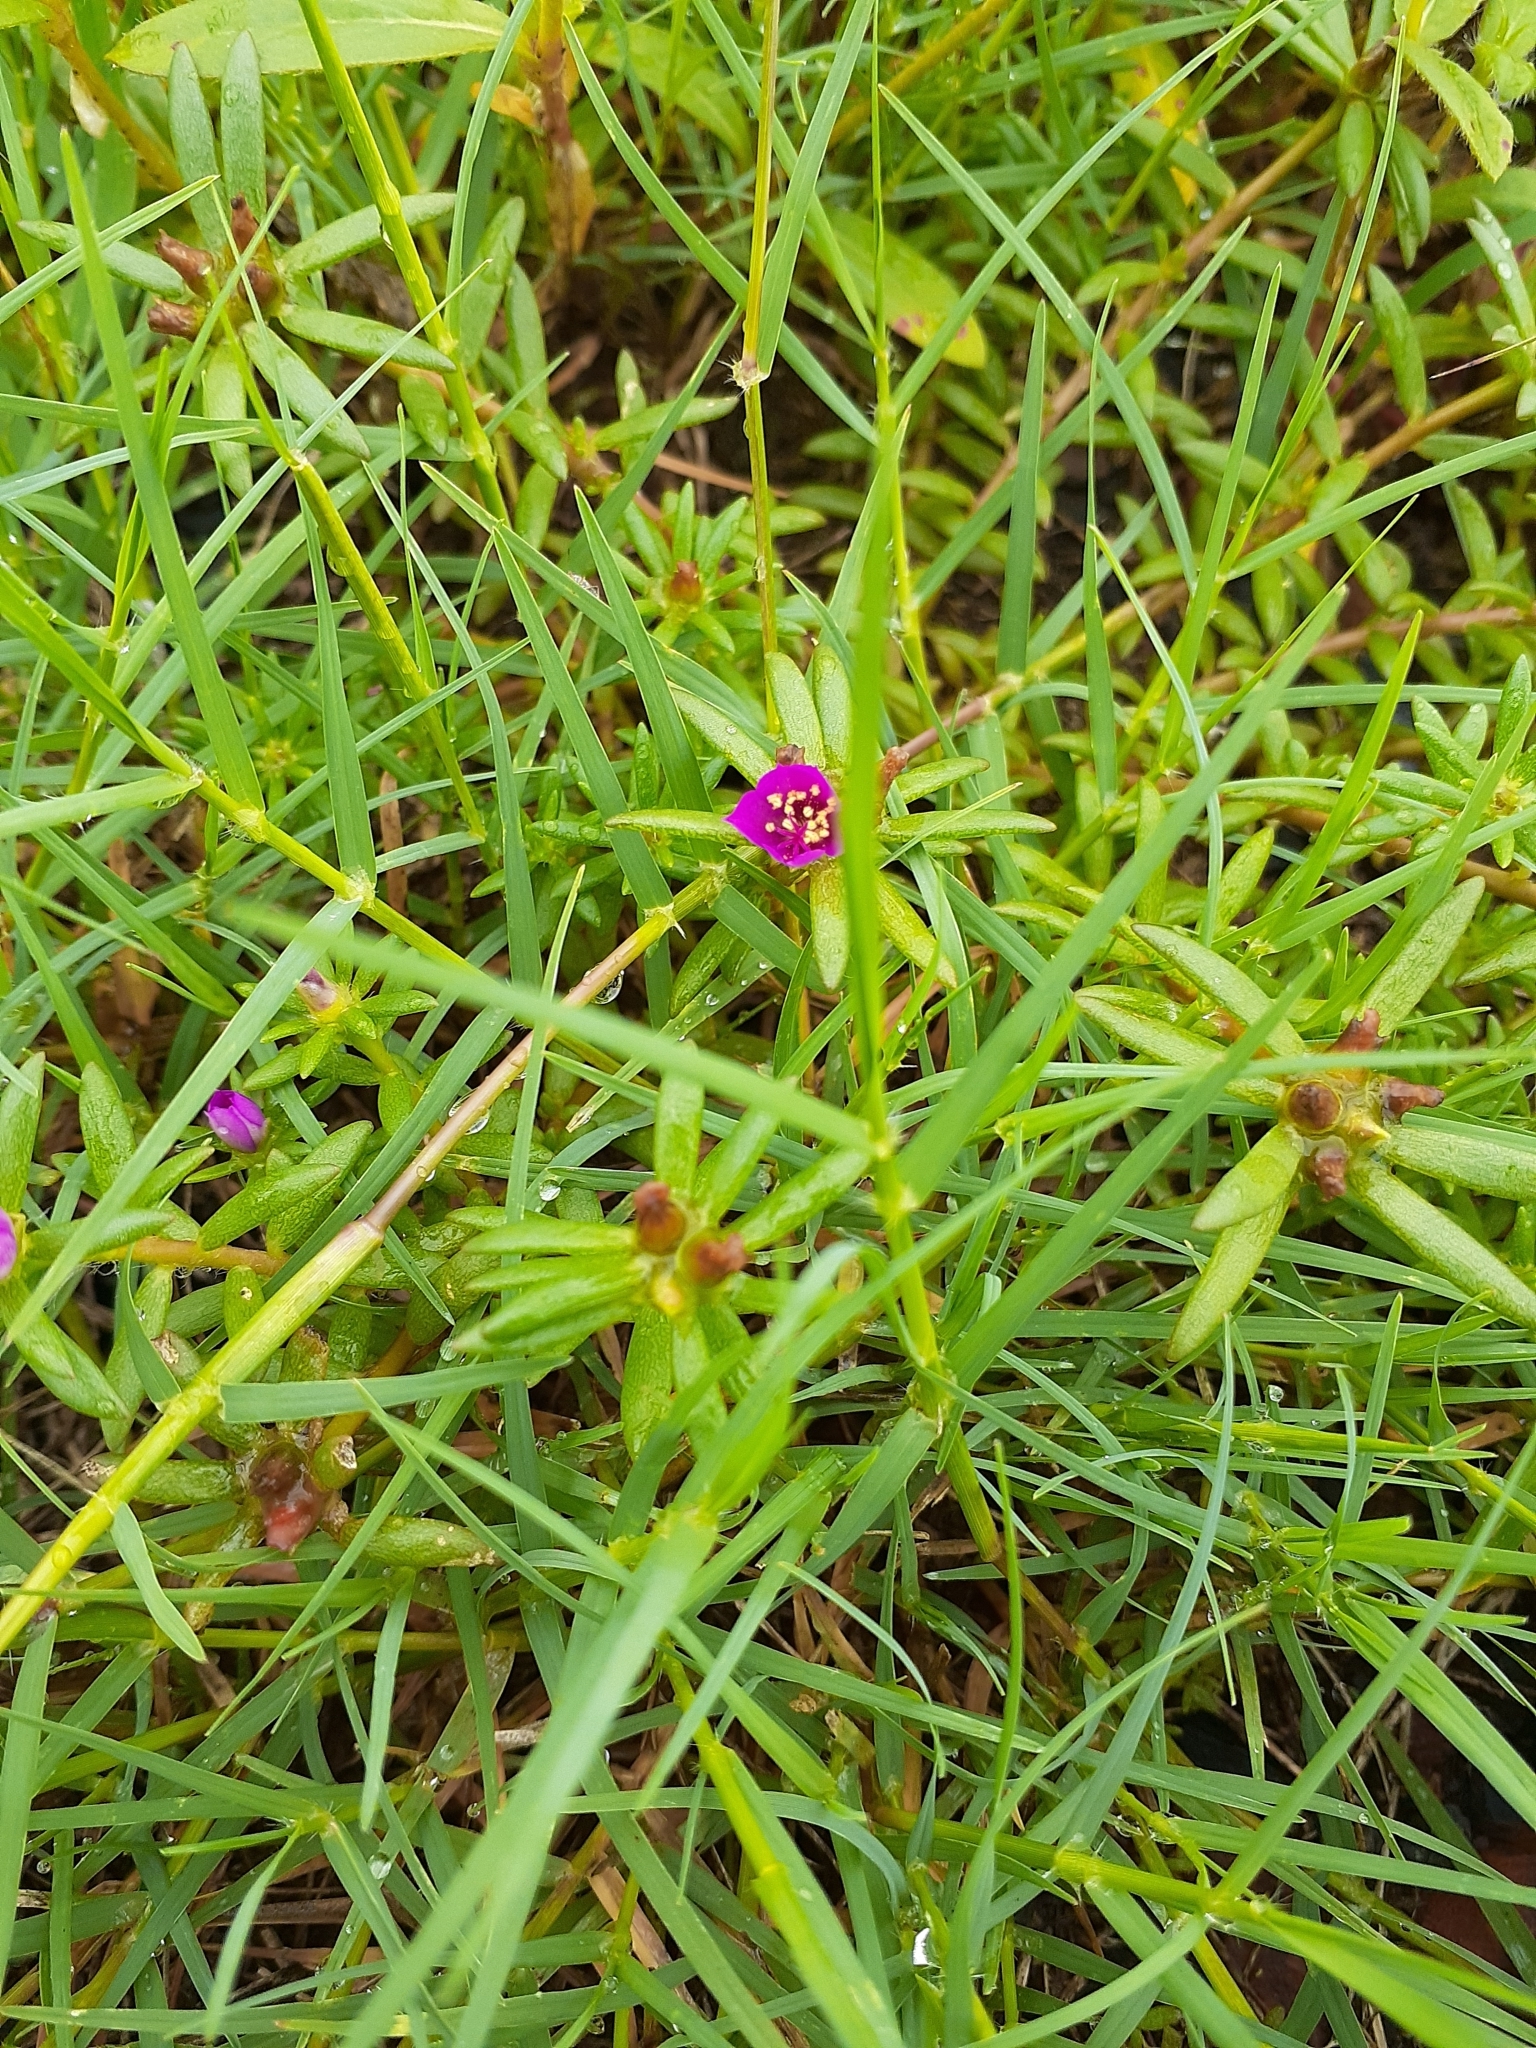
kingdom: Plantae
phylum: Tracheophyta
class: Magnoliopsida
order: Caryophyllales
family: Portulacaceae
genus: Portulaca
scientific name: Portulaca pilosa
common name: Kiss me quick
